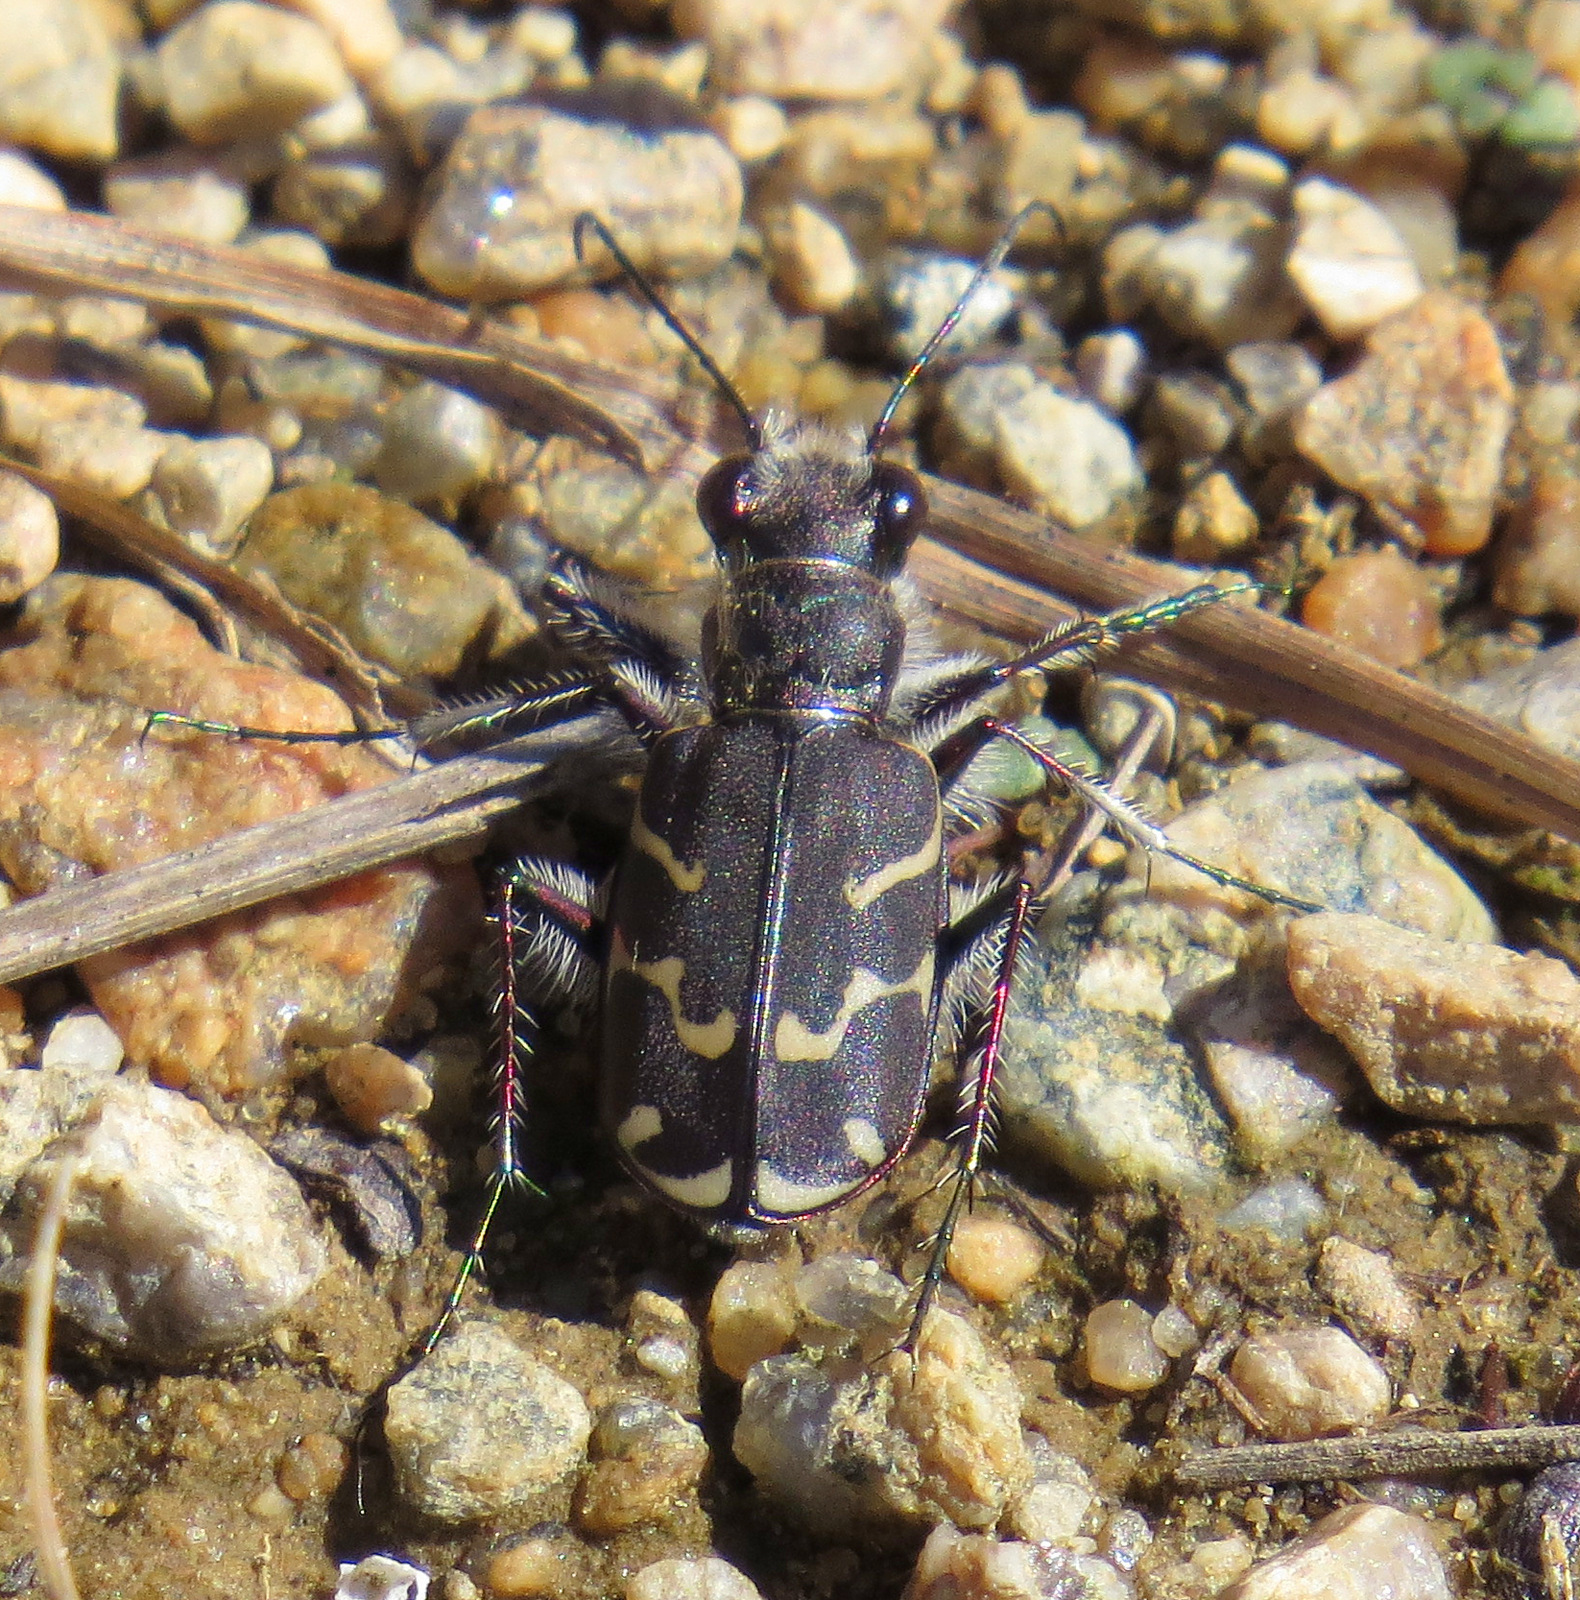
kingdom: Animalia
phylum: Arthropoda
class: Insecta
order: Coleoptera
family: Carabidae
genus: Cicindela
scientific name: Cicindela tranquebarica
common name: Oblique-lined tiger beetle
